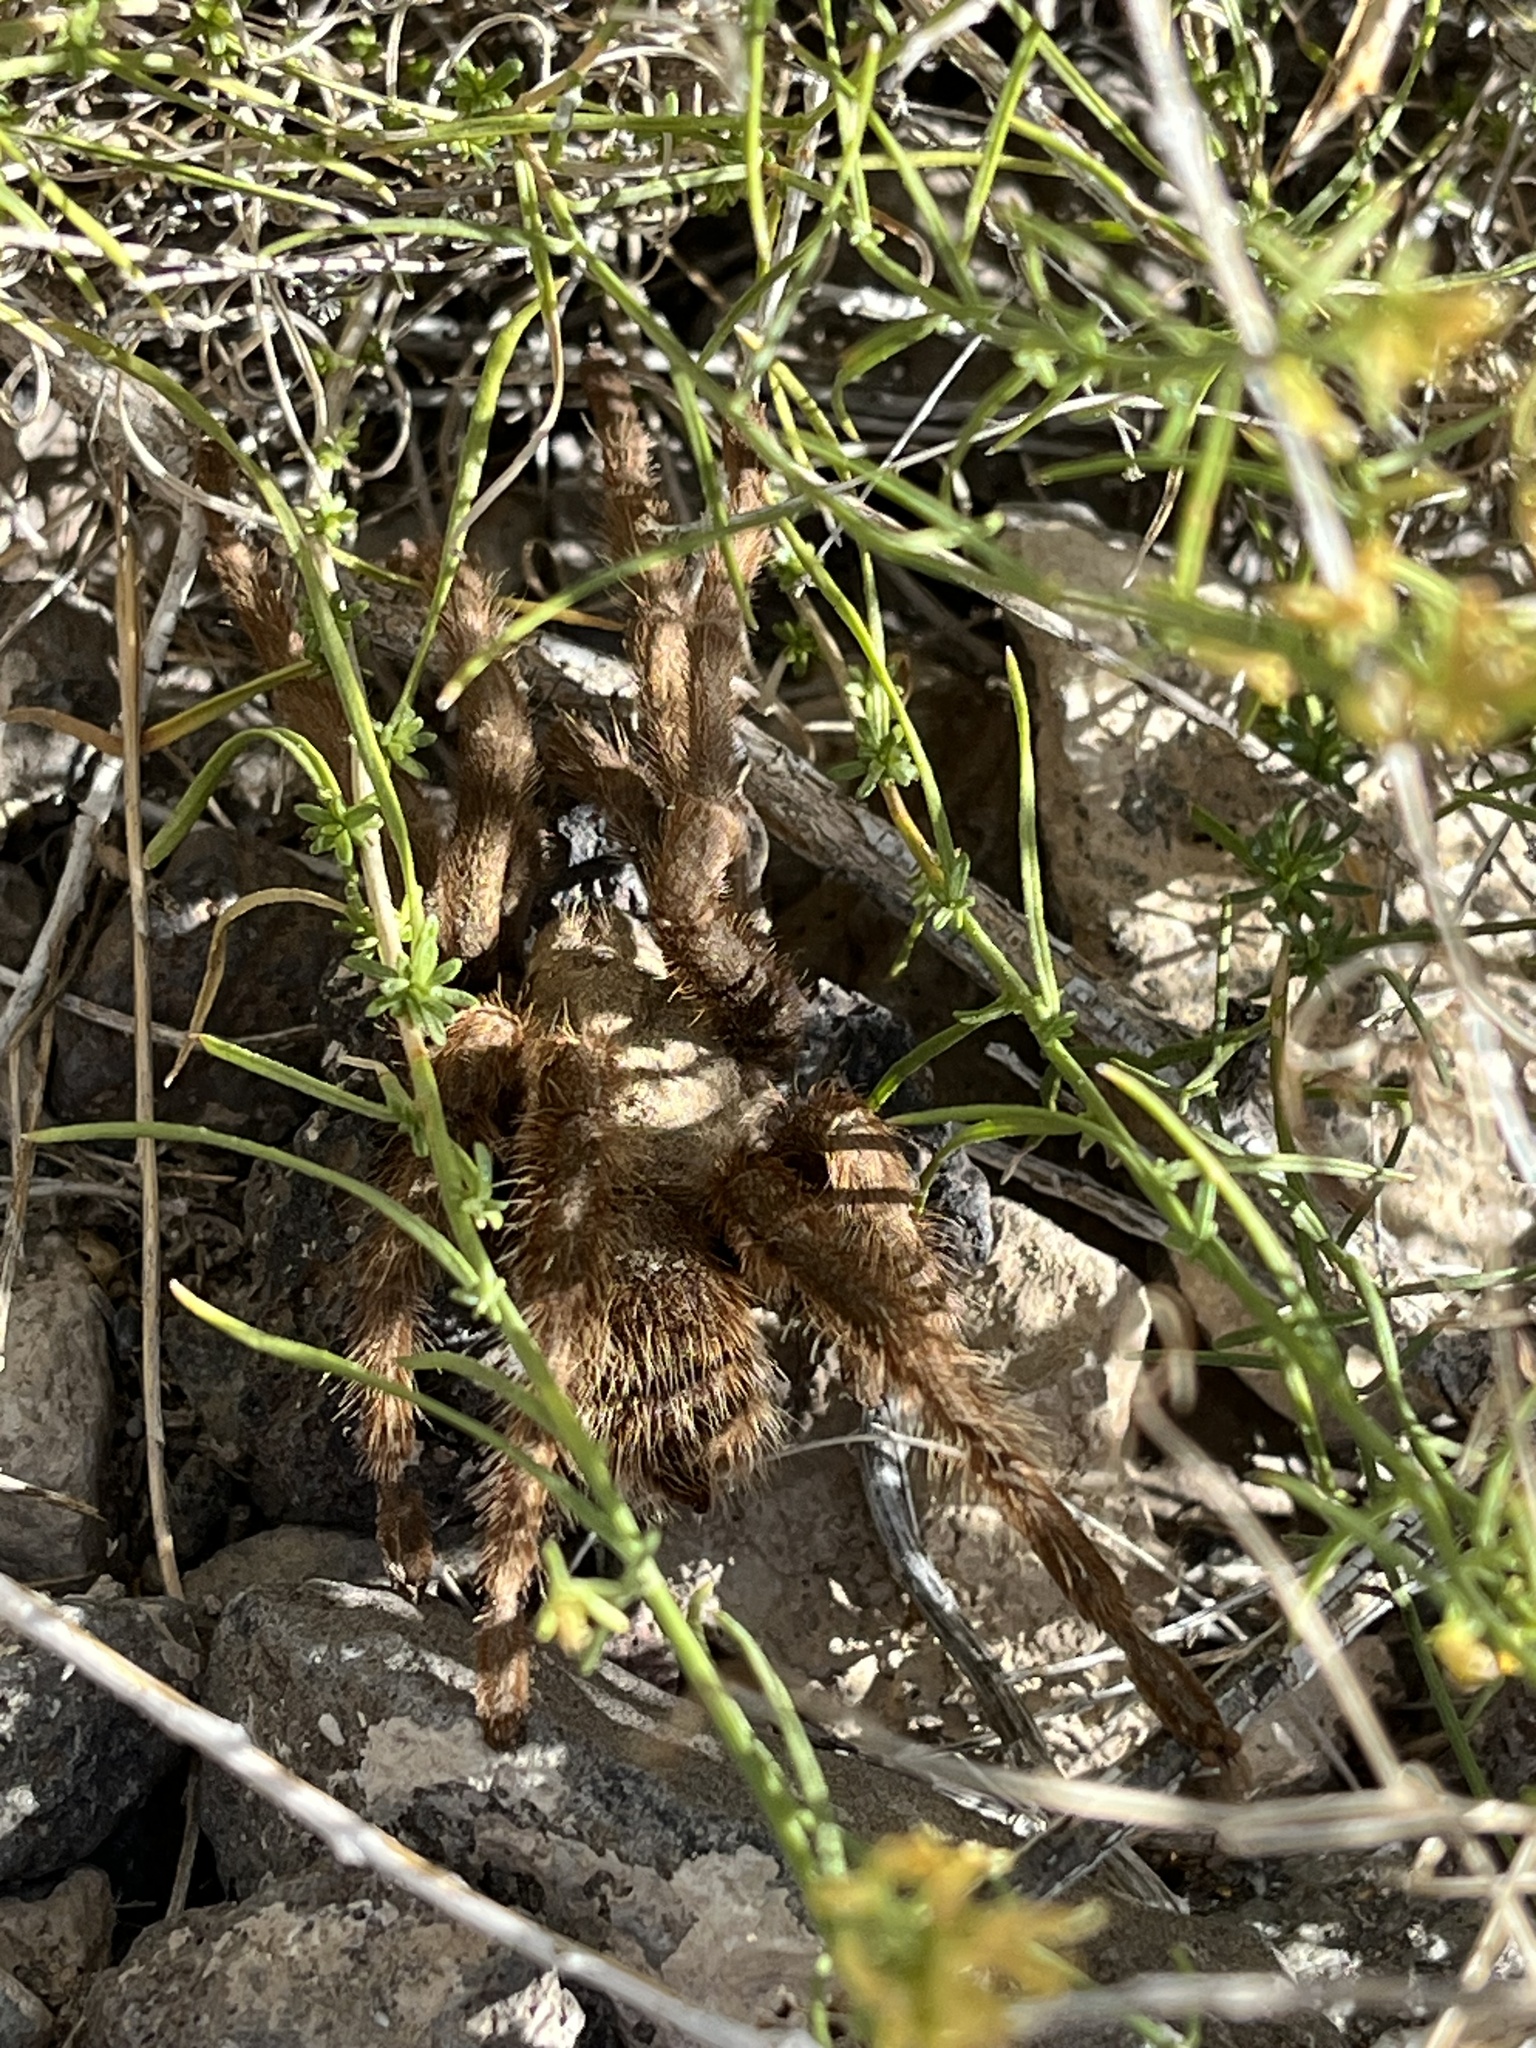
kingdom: Animalia
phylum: Arthropoda
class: Arachnida
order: Araneae
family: Theraphosidae
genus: Aphonopelma
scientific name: Aphonopelma iodius
